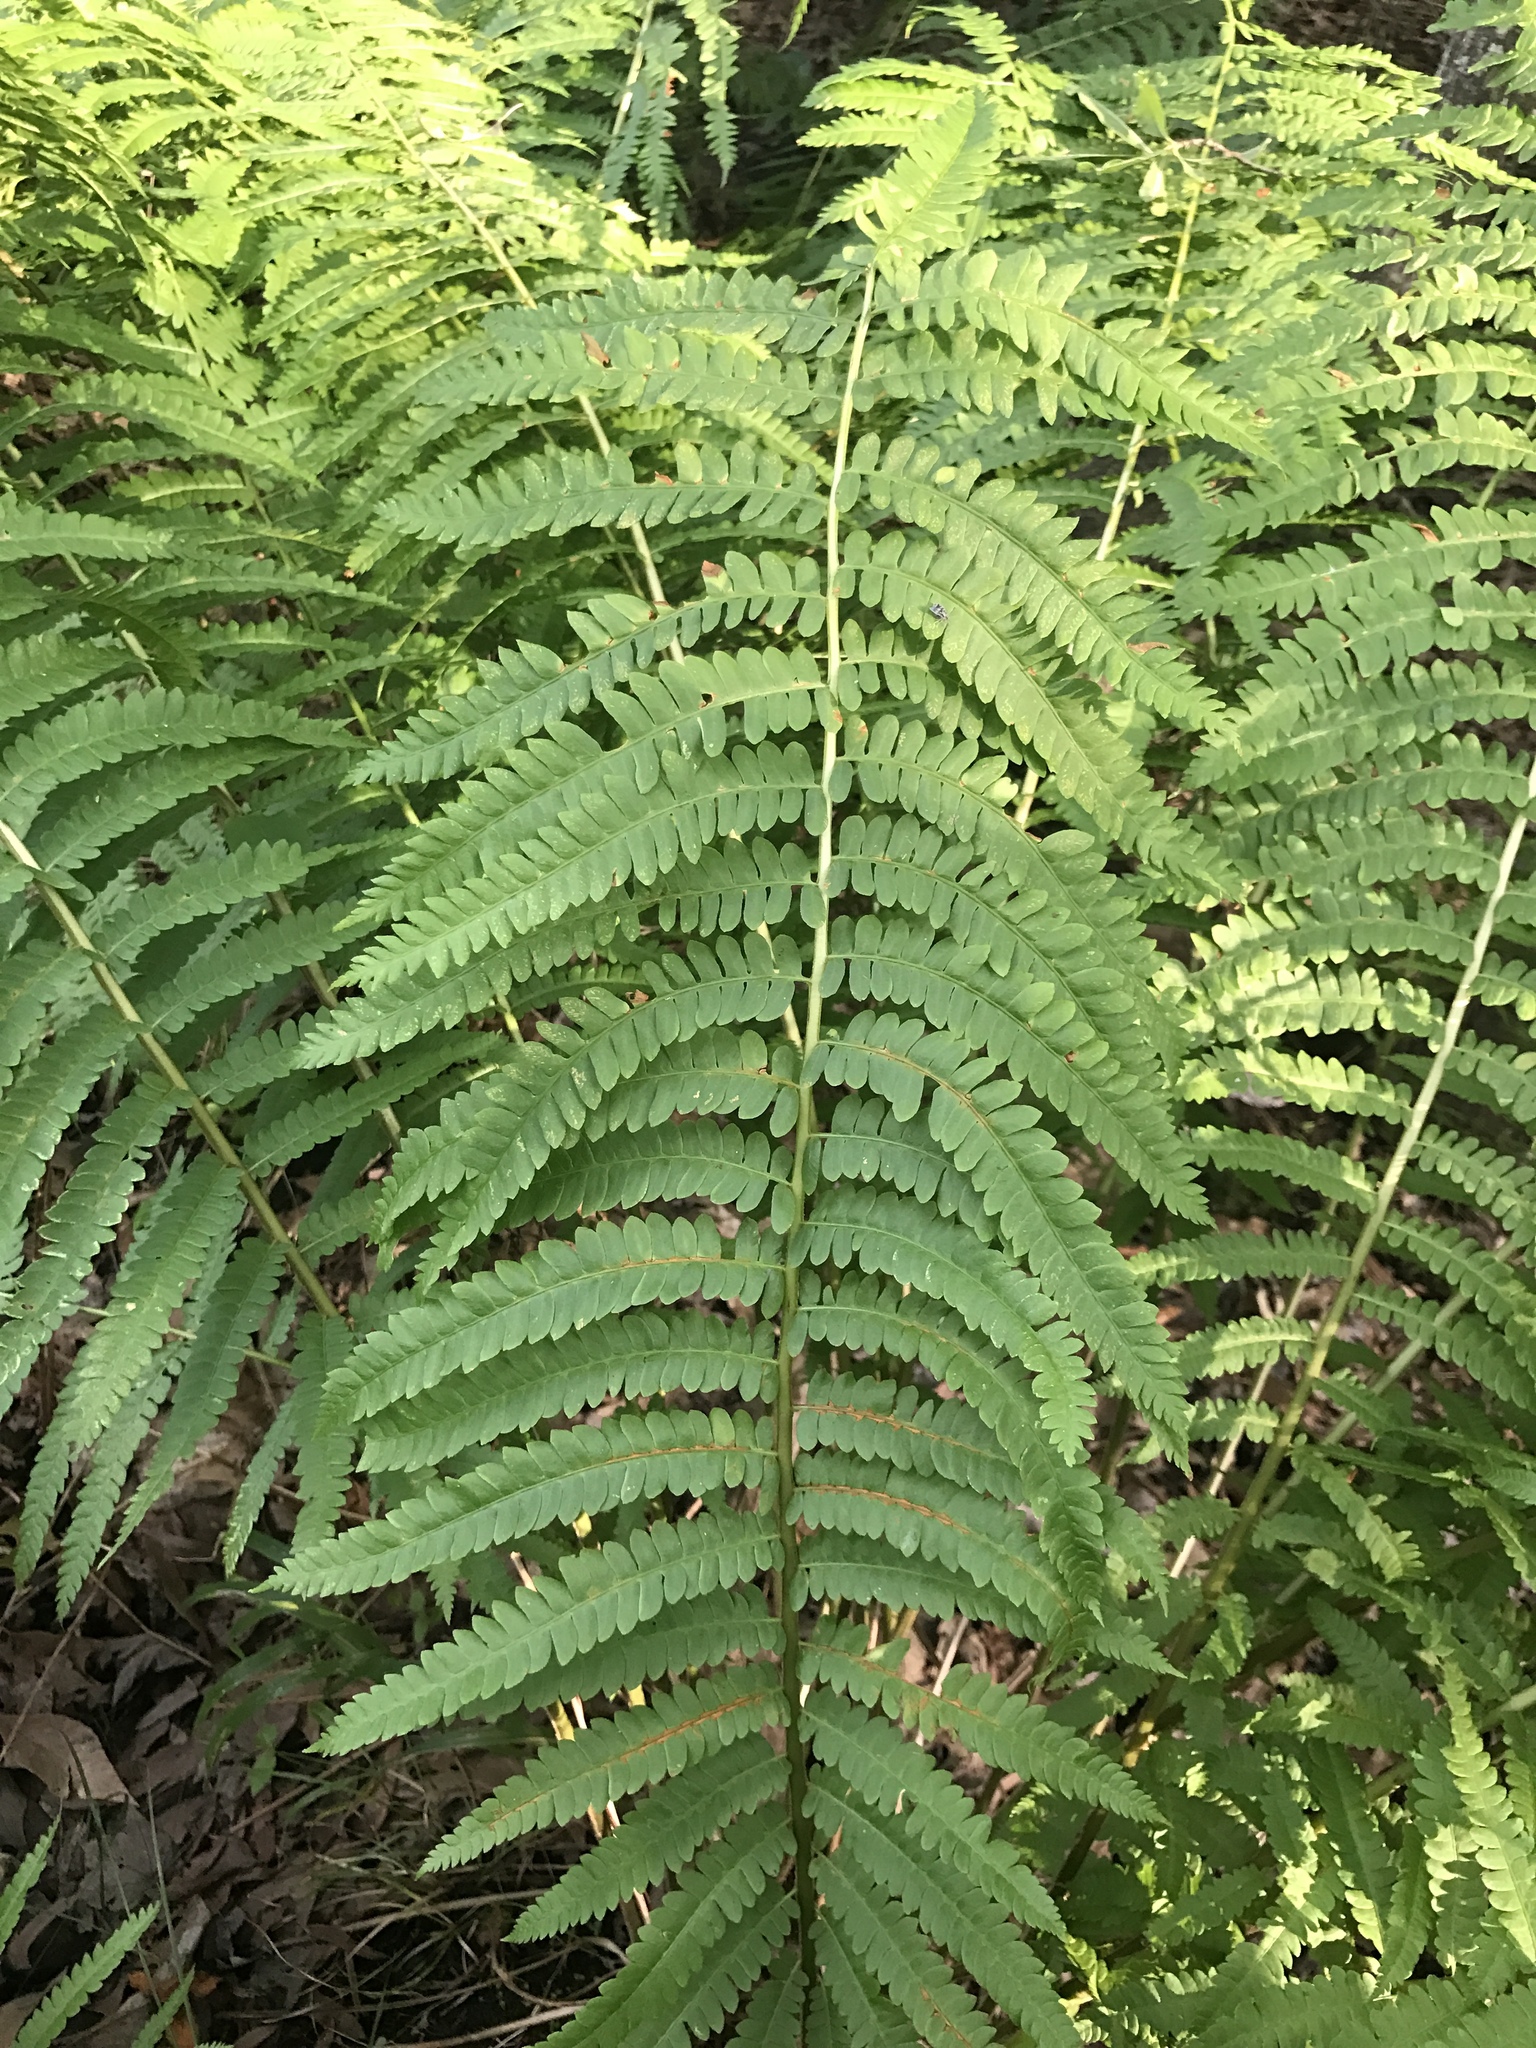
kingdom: Plantae
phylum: Tracheophyta
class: Polypodiopsida
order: Osmundales
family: Osmundaceae
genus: Osmundastrum
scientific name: Osmundastrum cinnamomeum
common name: Cinnamon fern
